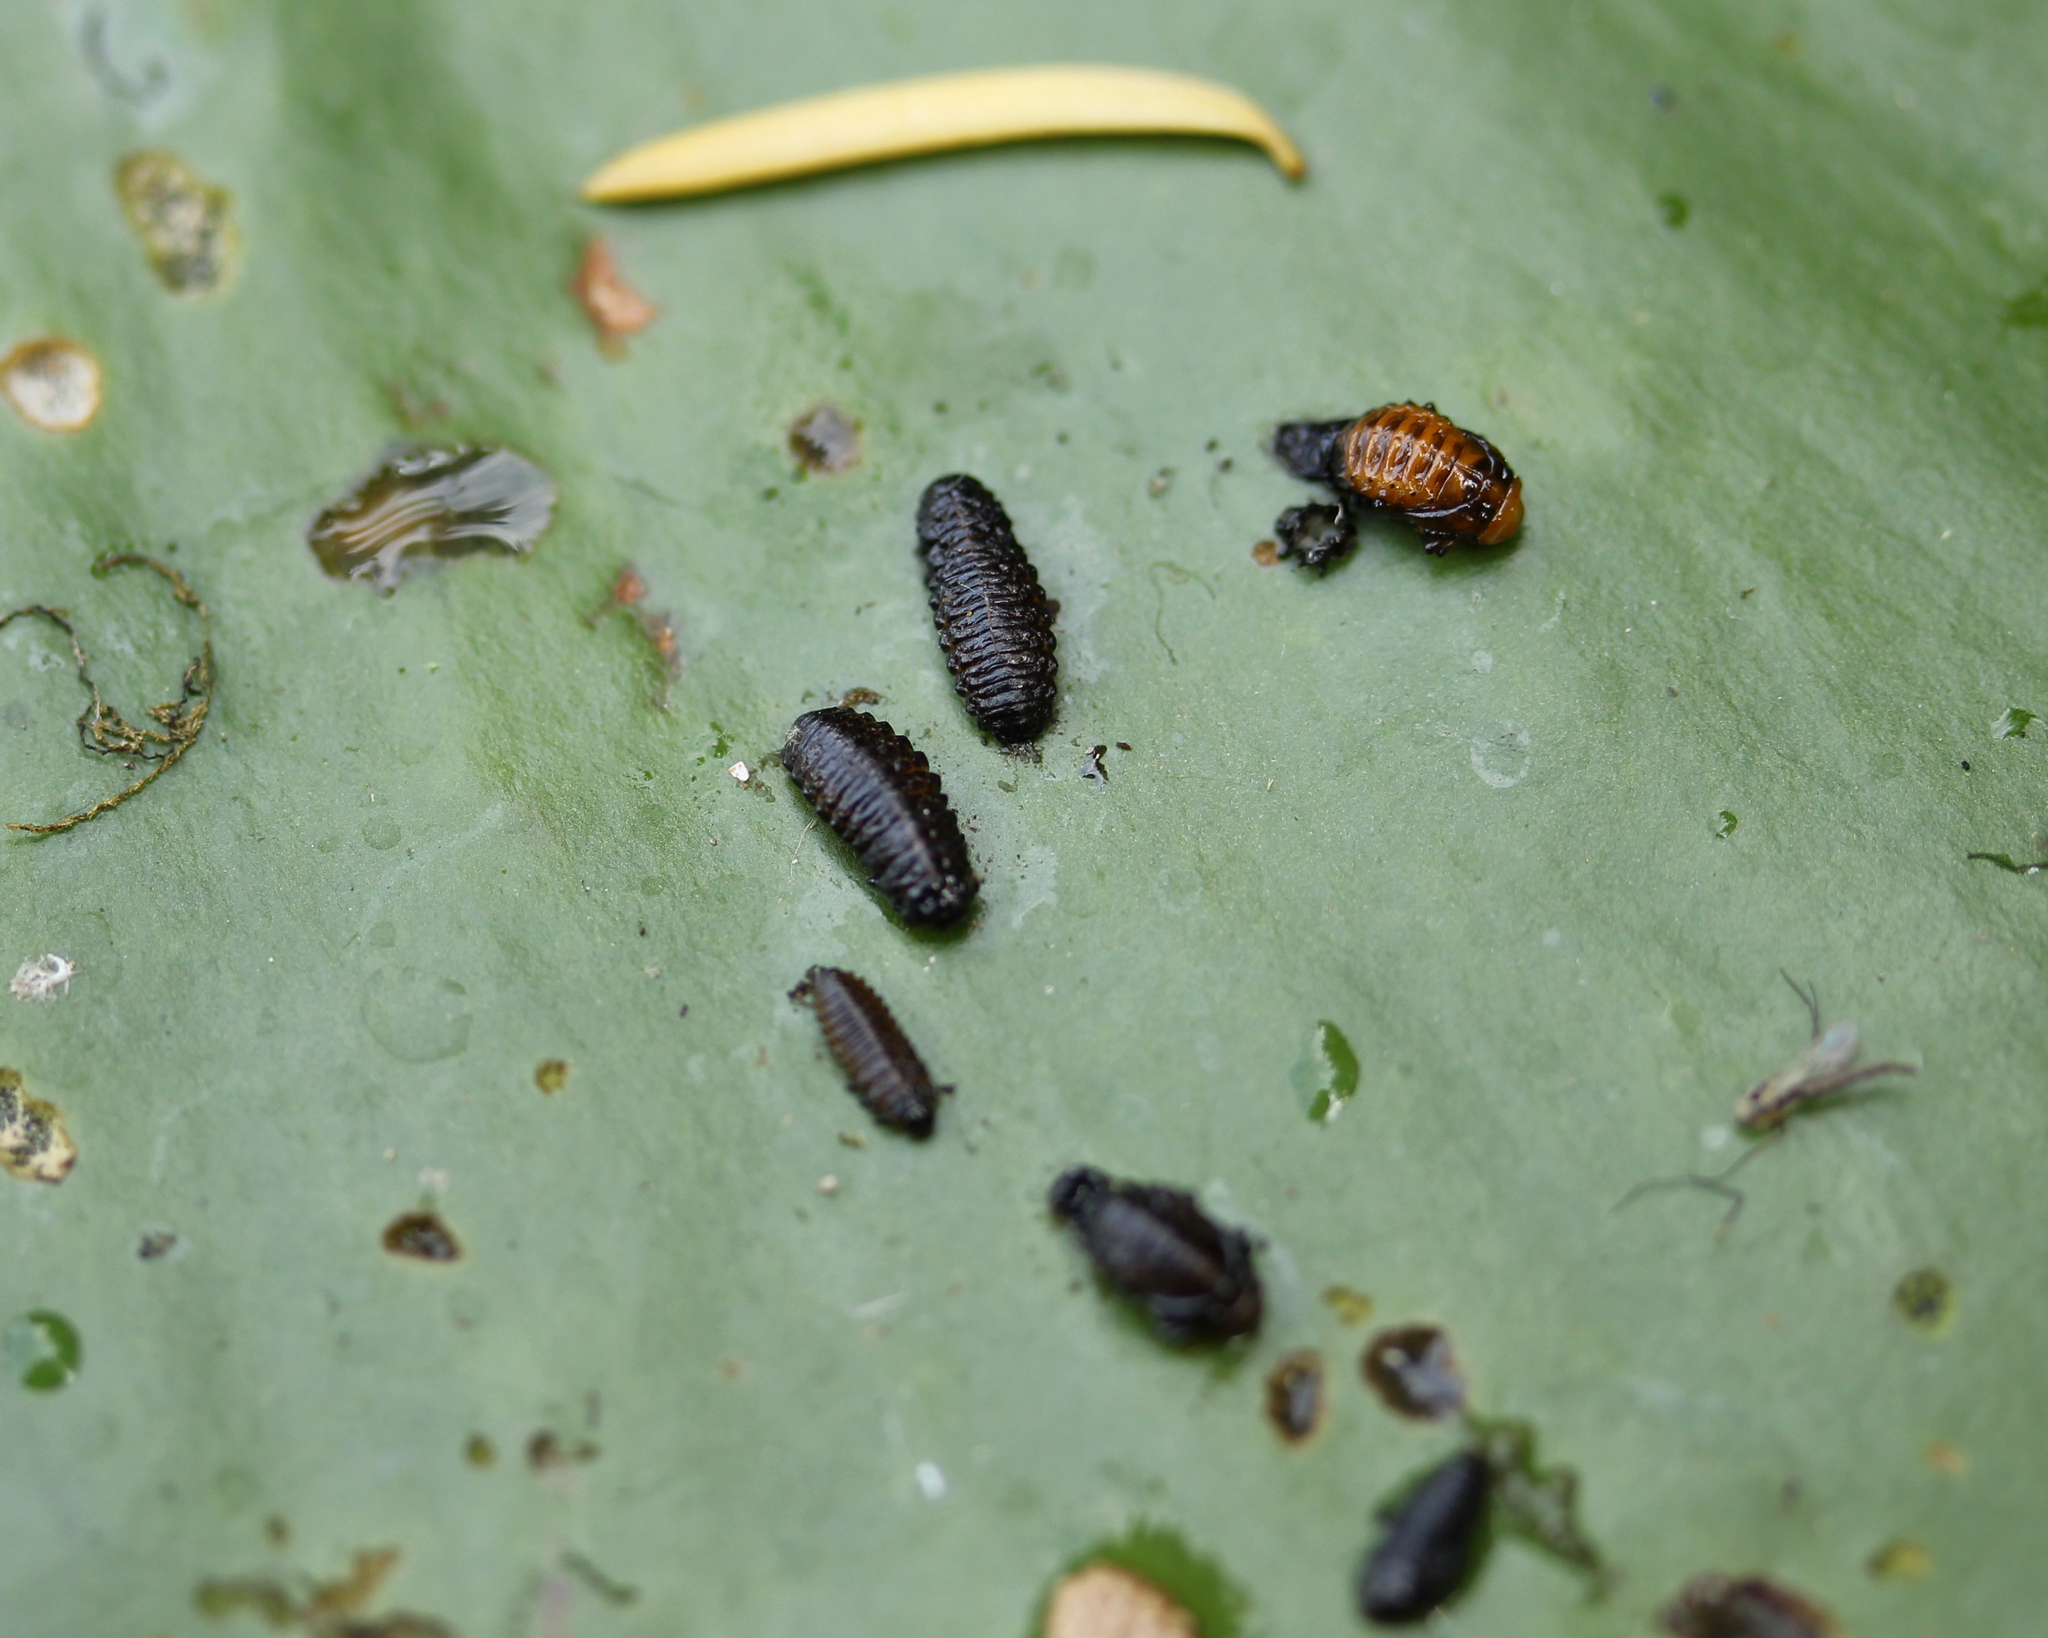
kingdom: Animalia
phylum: Arthropoda
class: Insecta
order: Coleoptera
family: Chrysomelidae
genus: Galerucella
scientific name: Galerucella nymphaeae
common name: Leaf beetle
